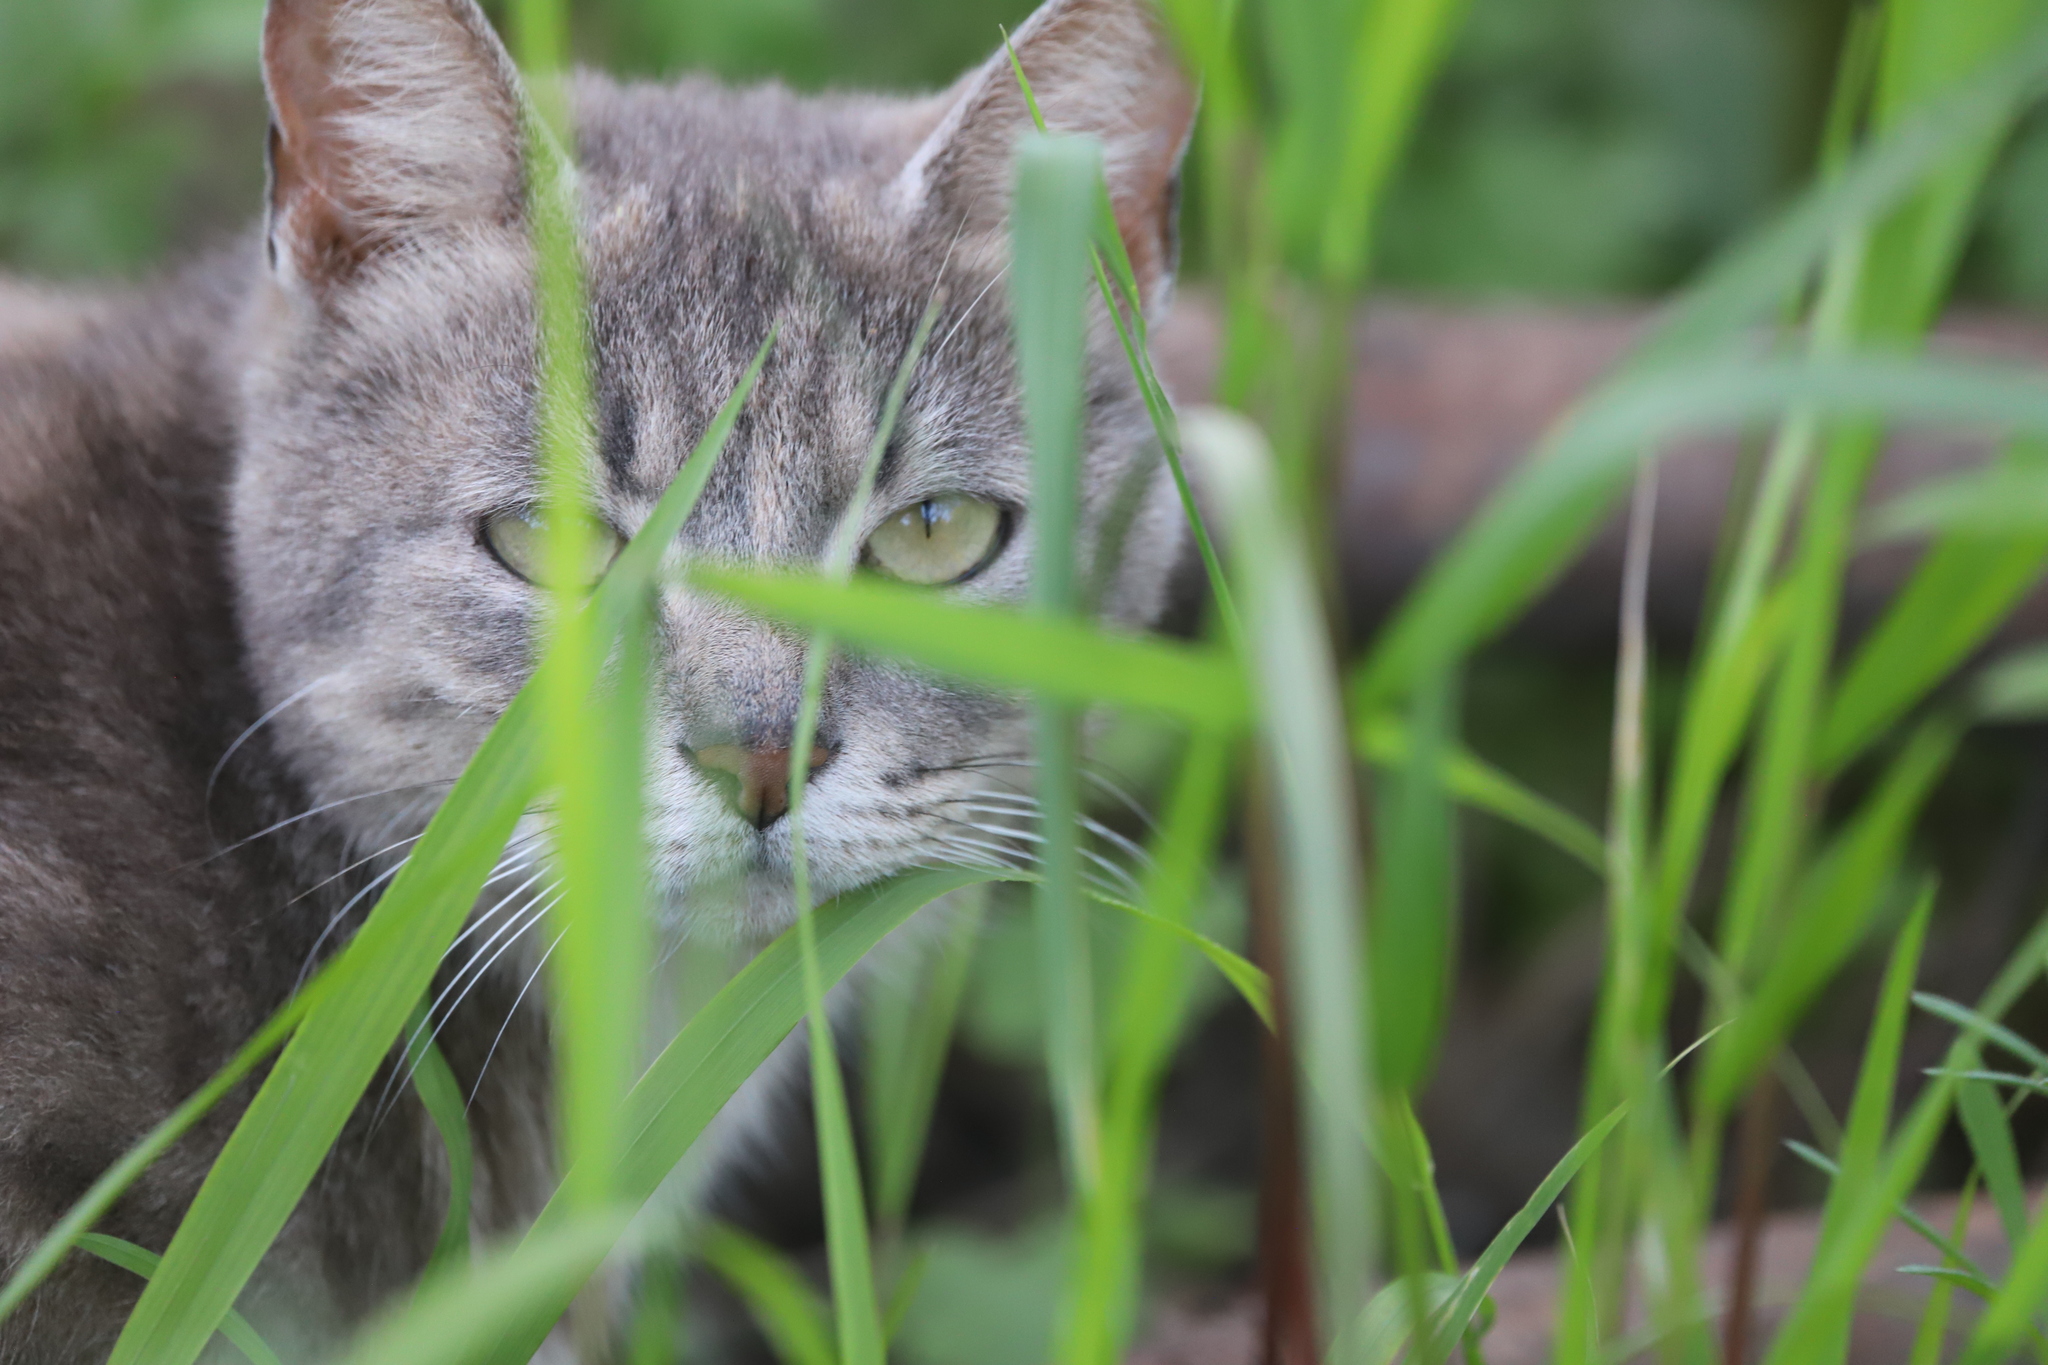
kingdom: Animalia
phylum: Chordata
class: Mammalia
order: Carnivora
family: Felidae
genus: Felis
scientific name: Felis catus
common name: Domestic cat
